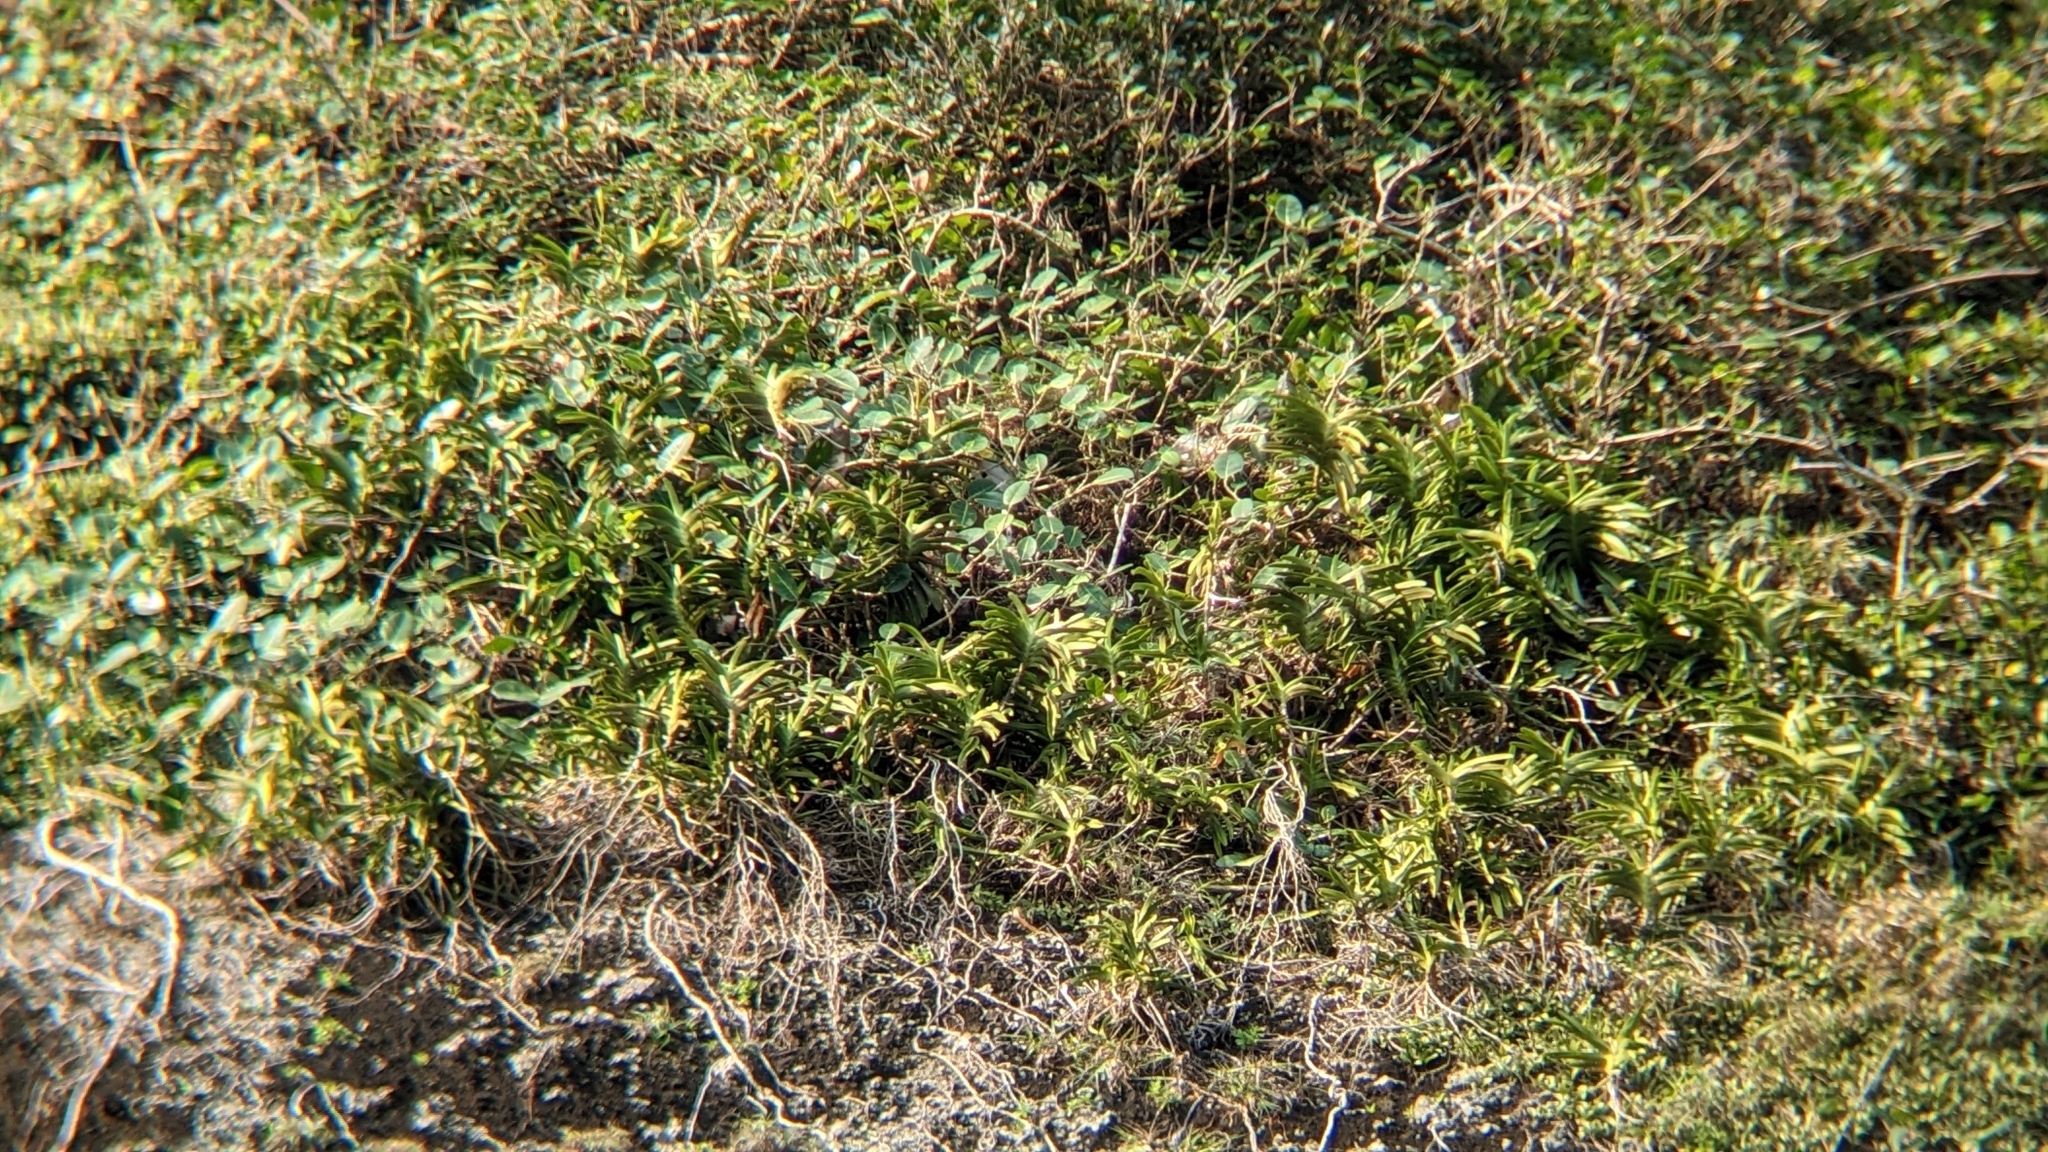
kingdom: Plantae
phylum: Tracheophyta
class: Liliopsida
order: Asparagales
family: Orchidaceae
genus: Vanda
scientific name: Vanda lamellata
